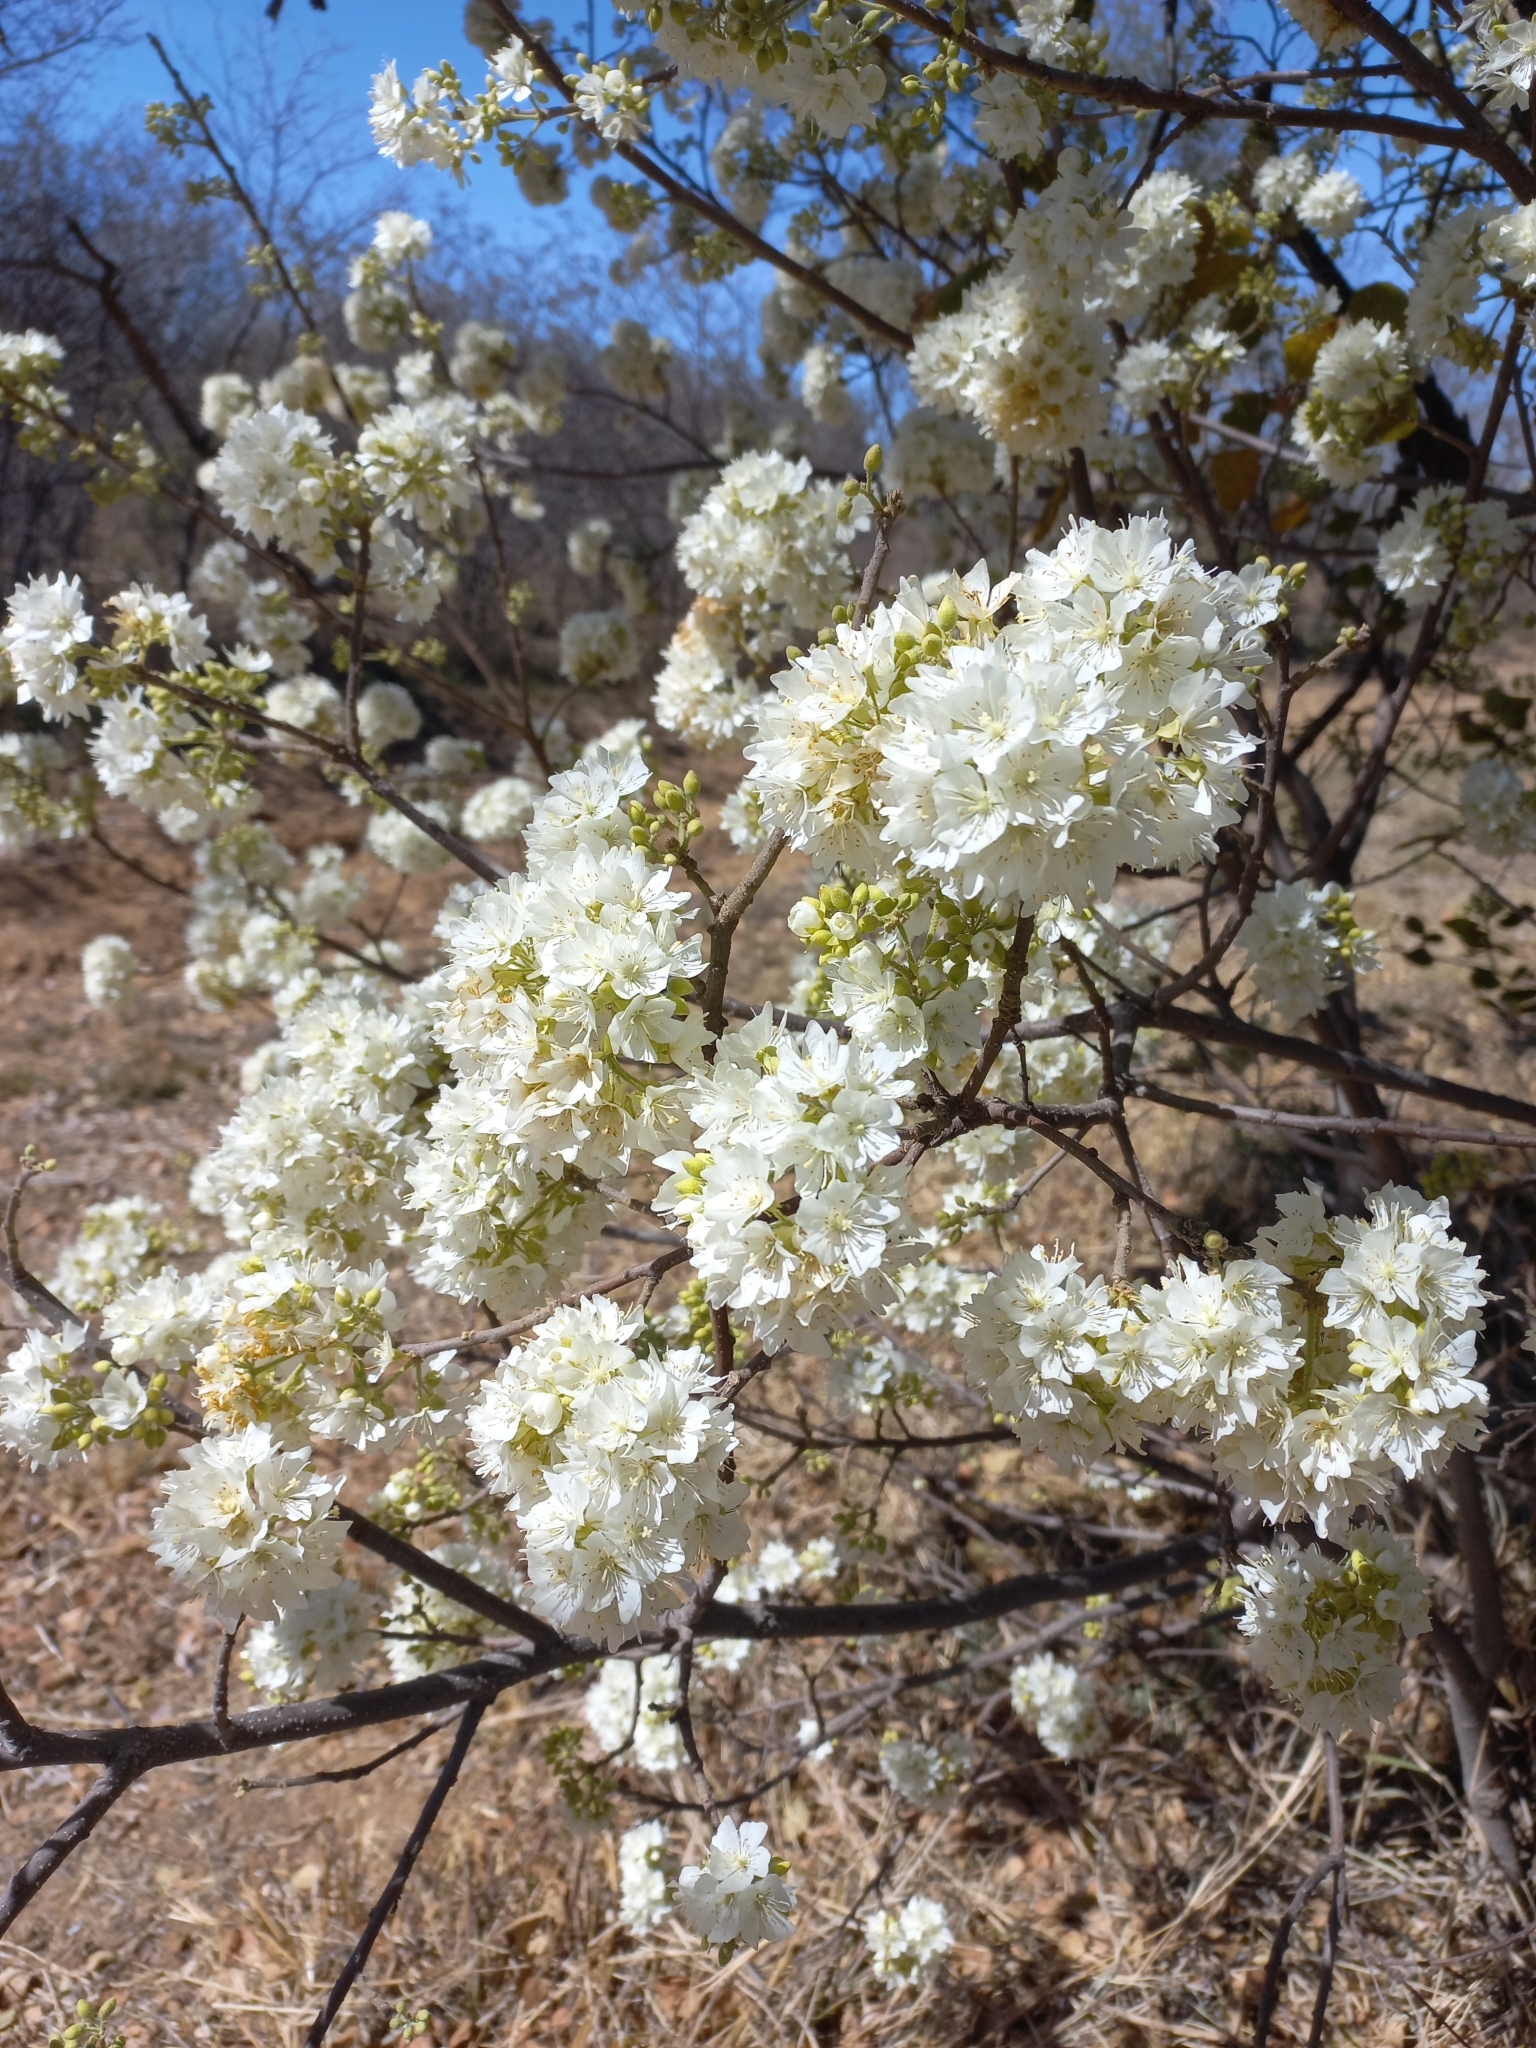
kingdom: Plantae
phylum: Tracheophyta
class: Magnoliopsida
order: Malvales
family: Malvaceae
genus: Dombeya
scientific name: Dombeya rotundifolia
